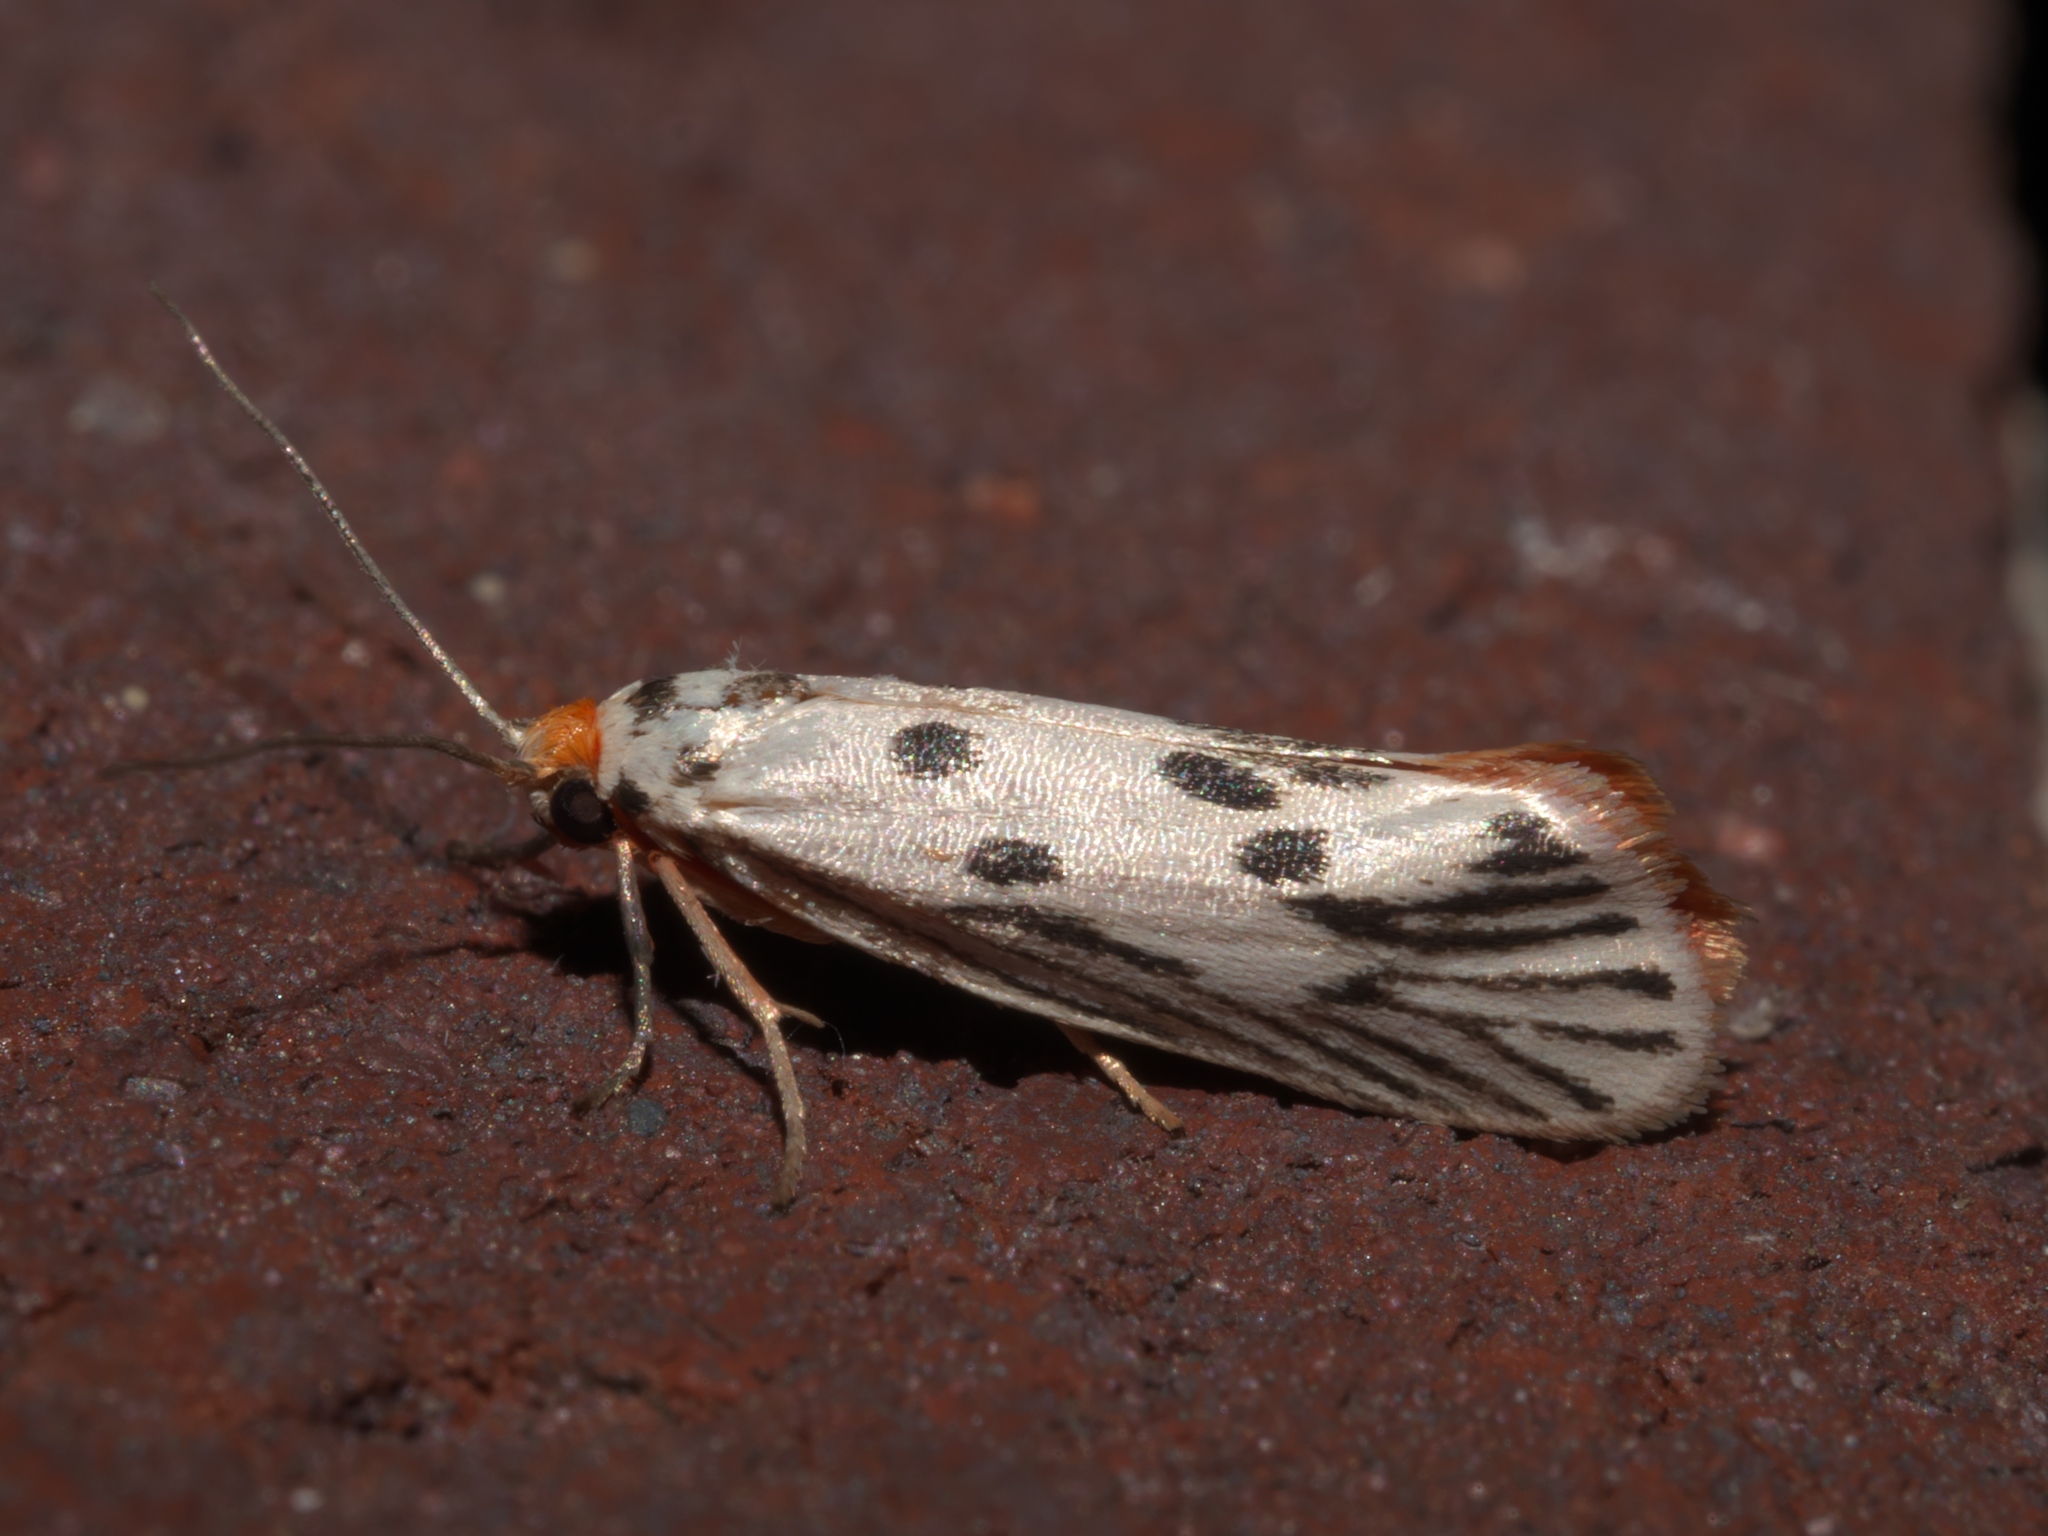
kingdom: Animalia
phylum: Arthropoda
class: Insecta
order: Lepidoptera
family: Lacturidae
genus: Lactura
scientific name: Lactura
